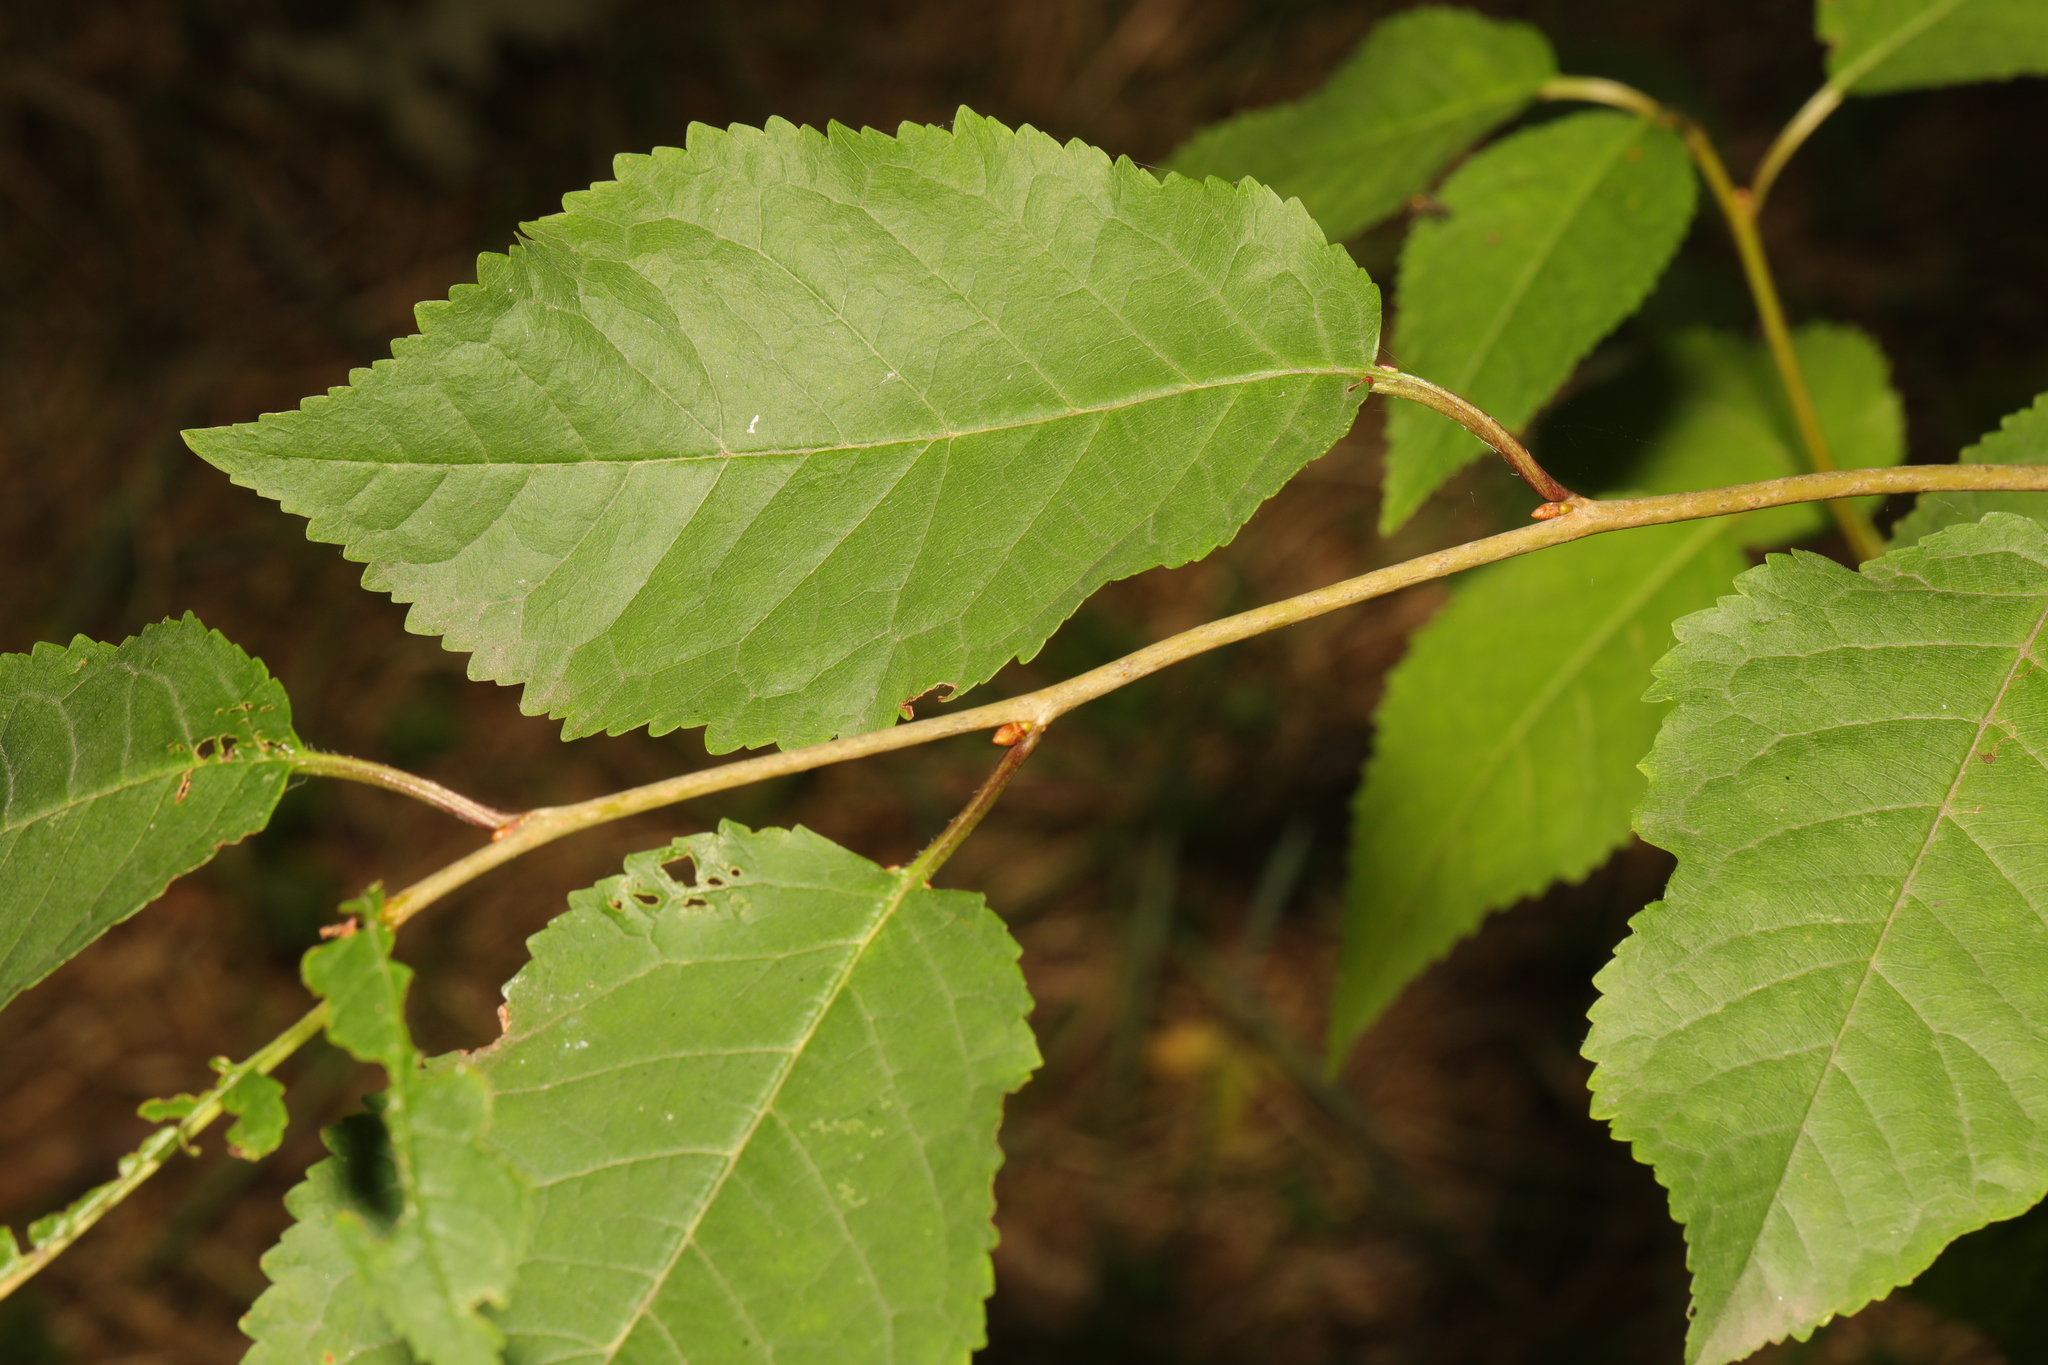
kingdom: Plantae
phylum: Tracheophyta
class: Magnoliopsida
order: Rosales
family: Rosaceae
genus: Prunus
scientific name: Prunus avium
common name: Sweet cherry
